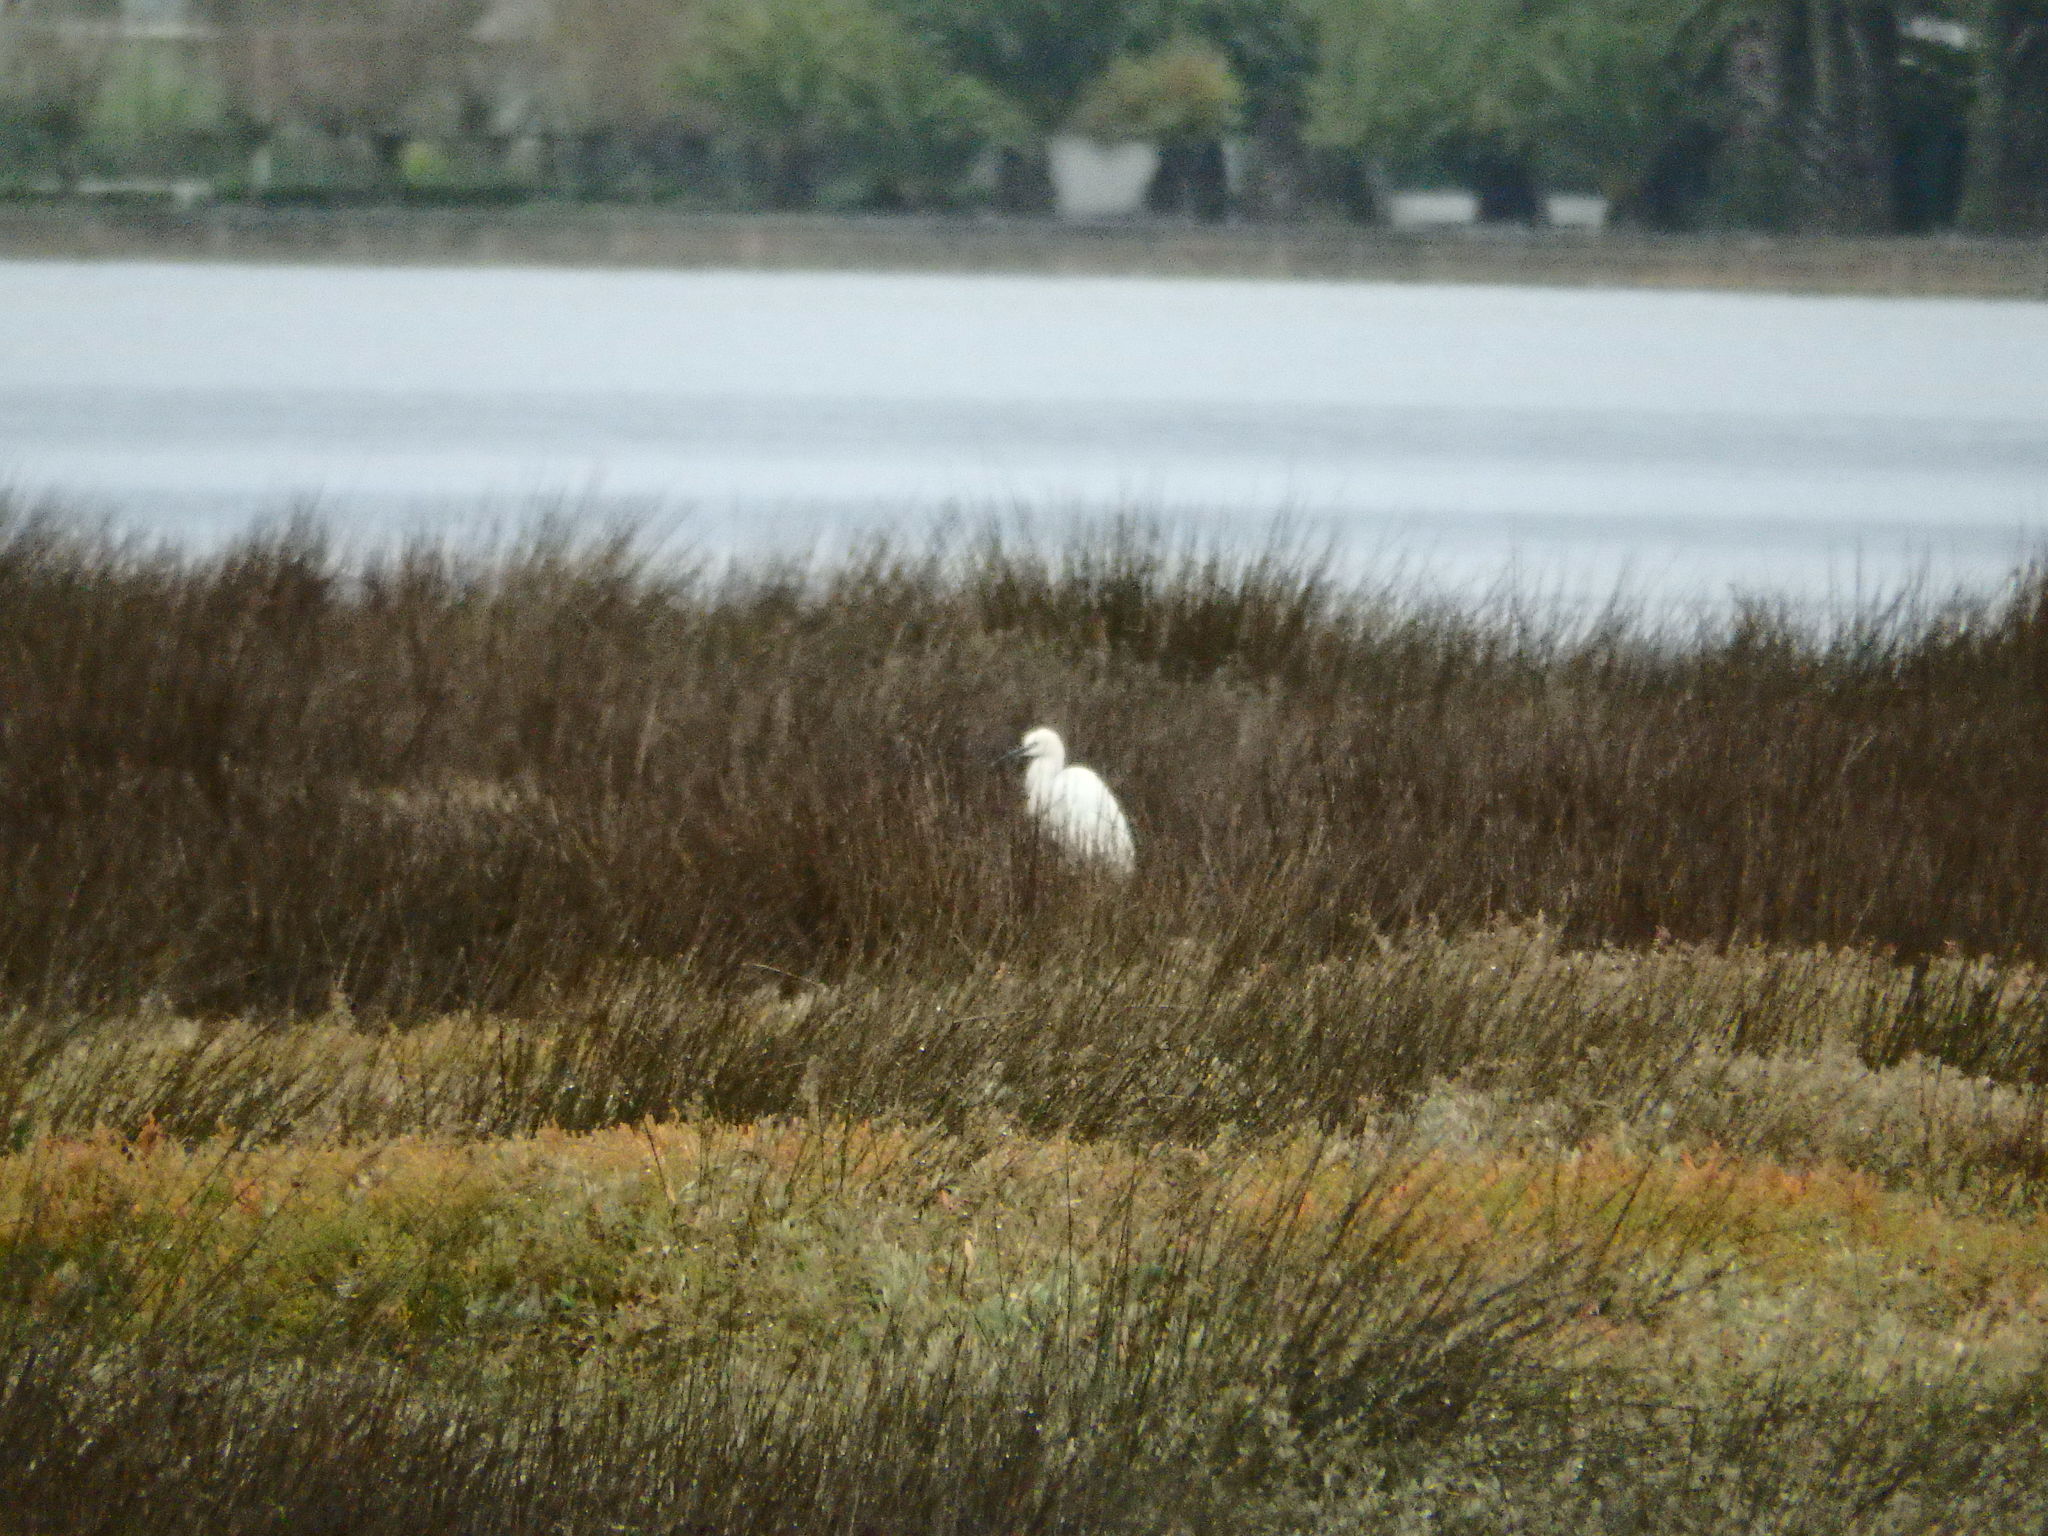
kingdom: Animalia
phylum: Chordata
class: Aves
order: Pelecaniformes
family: Ardeidae
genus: Egretta
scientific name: Egretta garzetta
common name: Little egret
